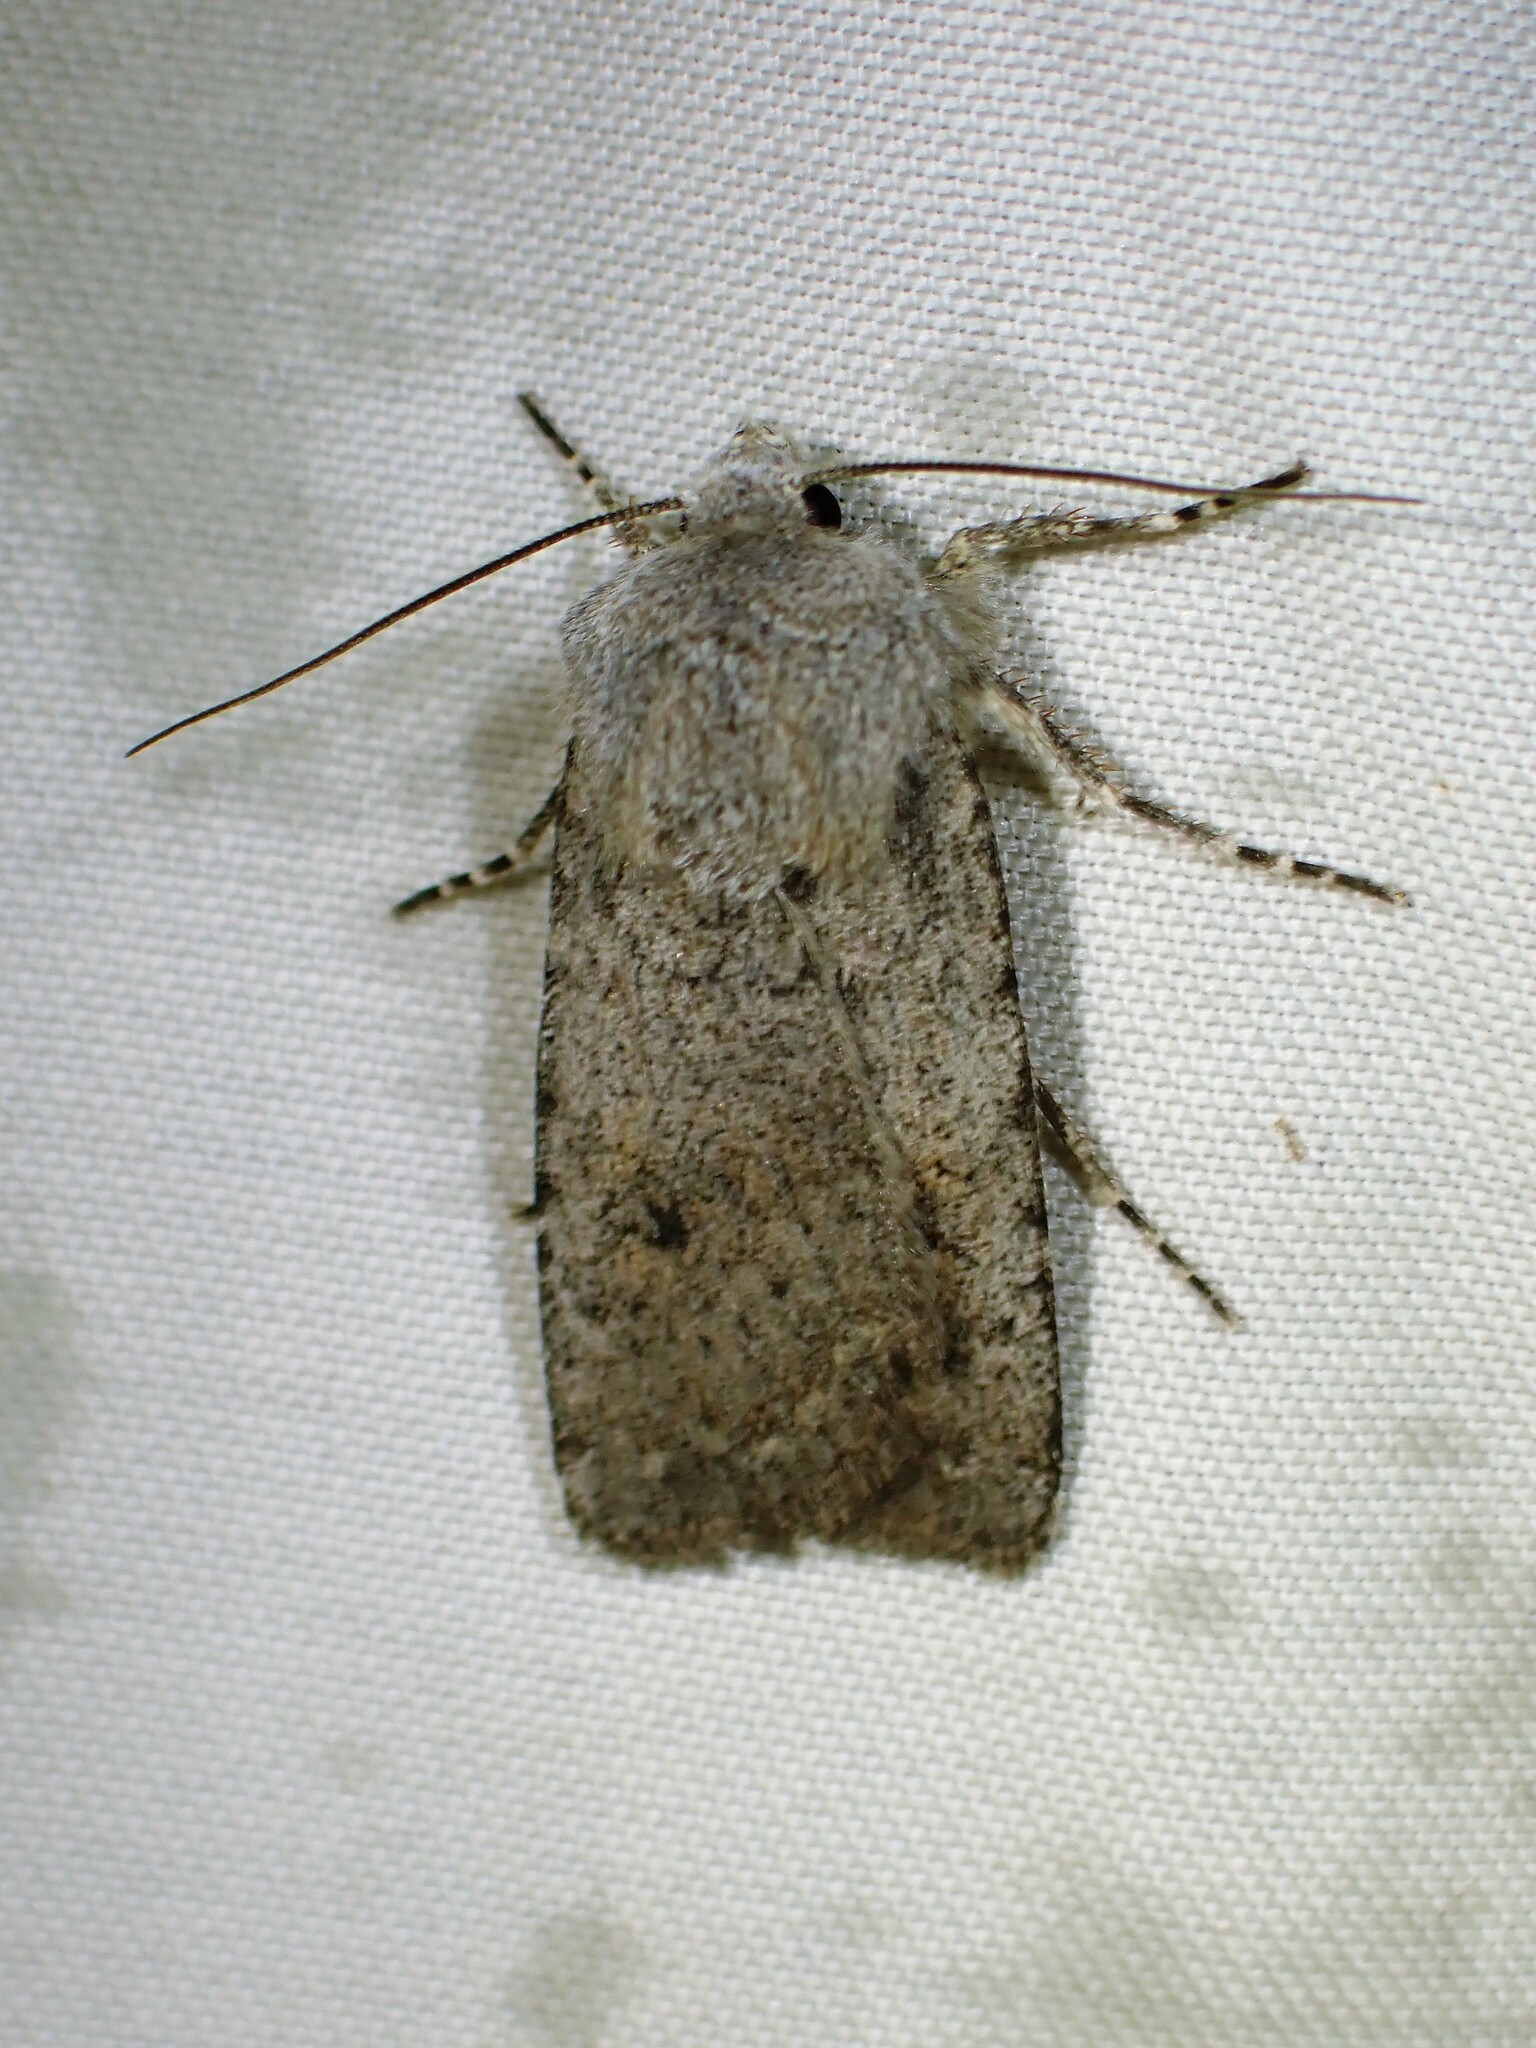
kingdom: Animalia
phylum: Arthropoda
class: Insecta
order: Lepidoptera
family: Noctuidae
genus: Euxoa
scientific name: Euxoa quebecensis
